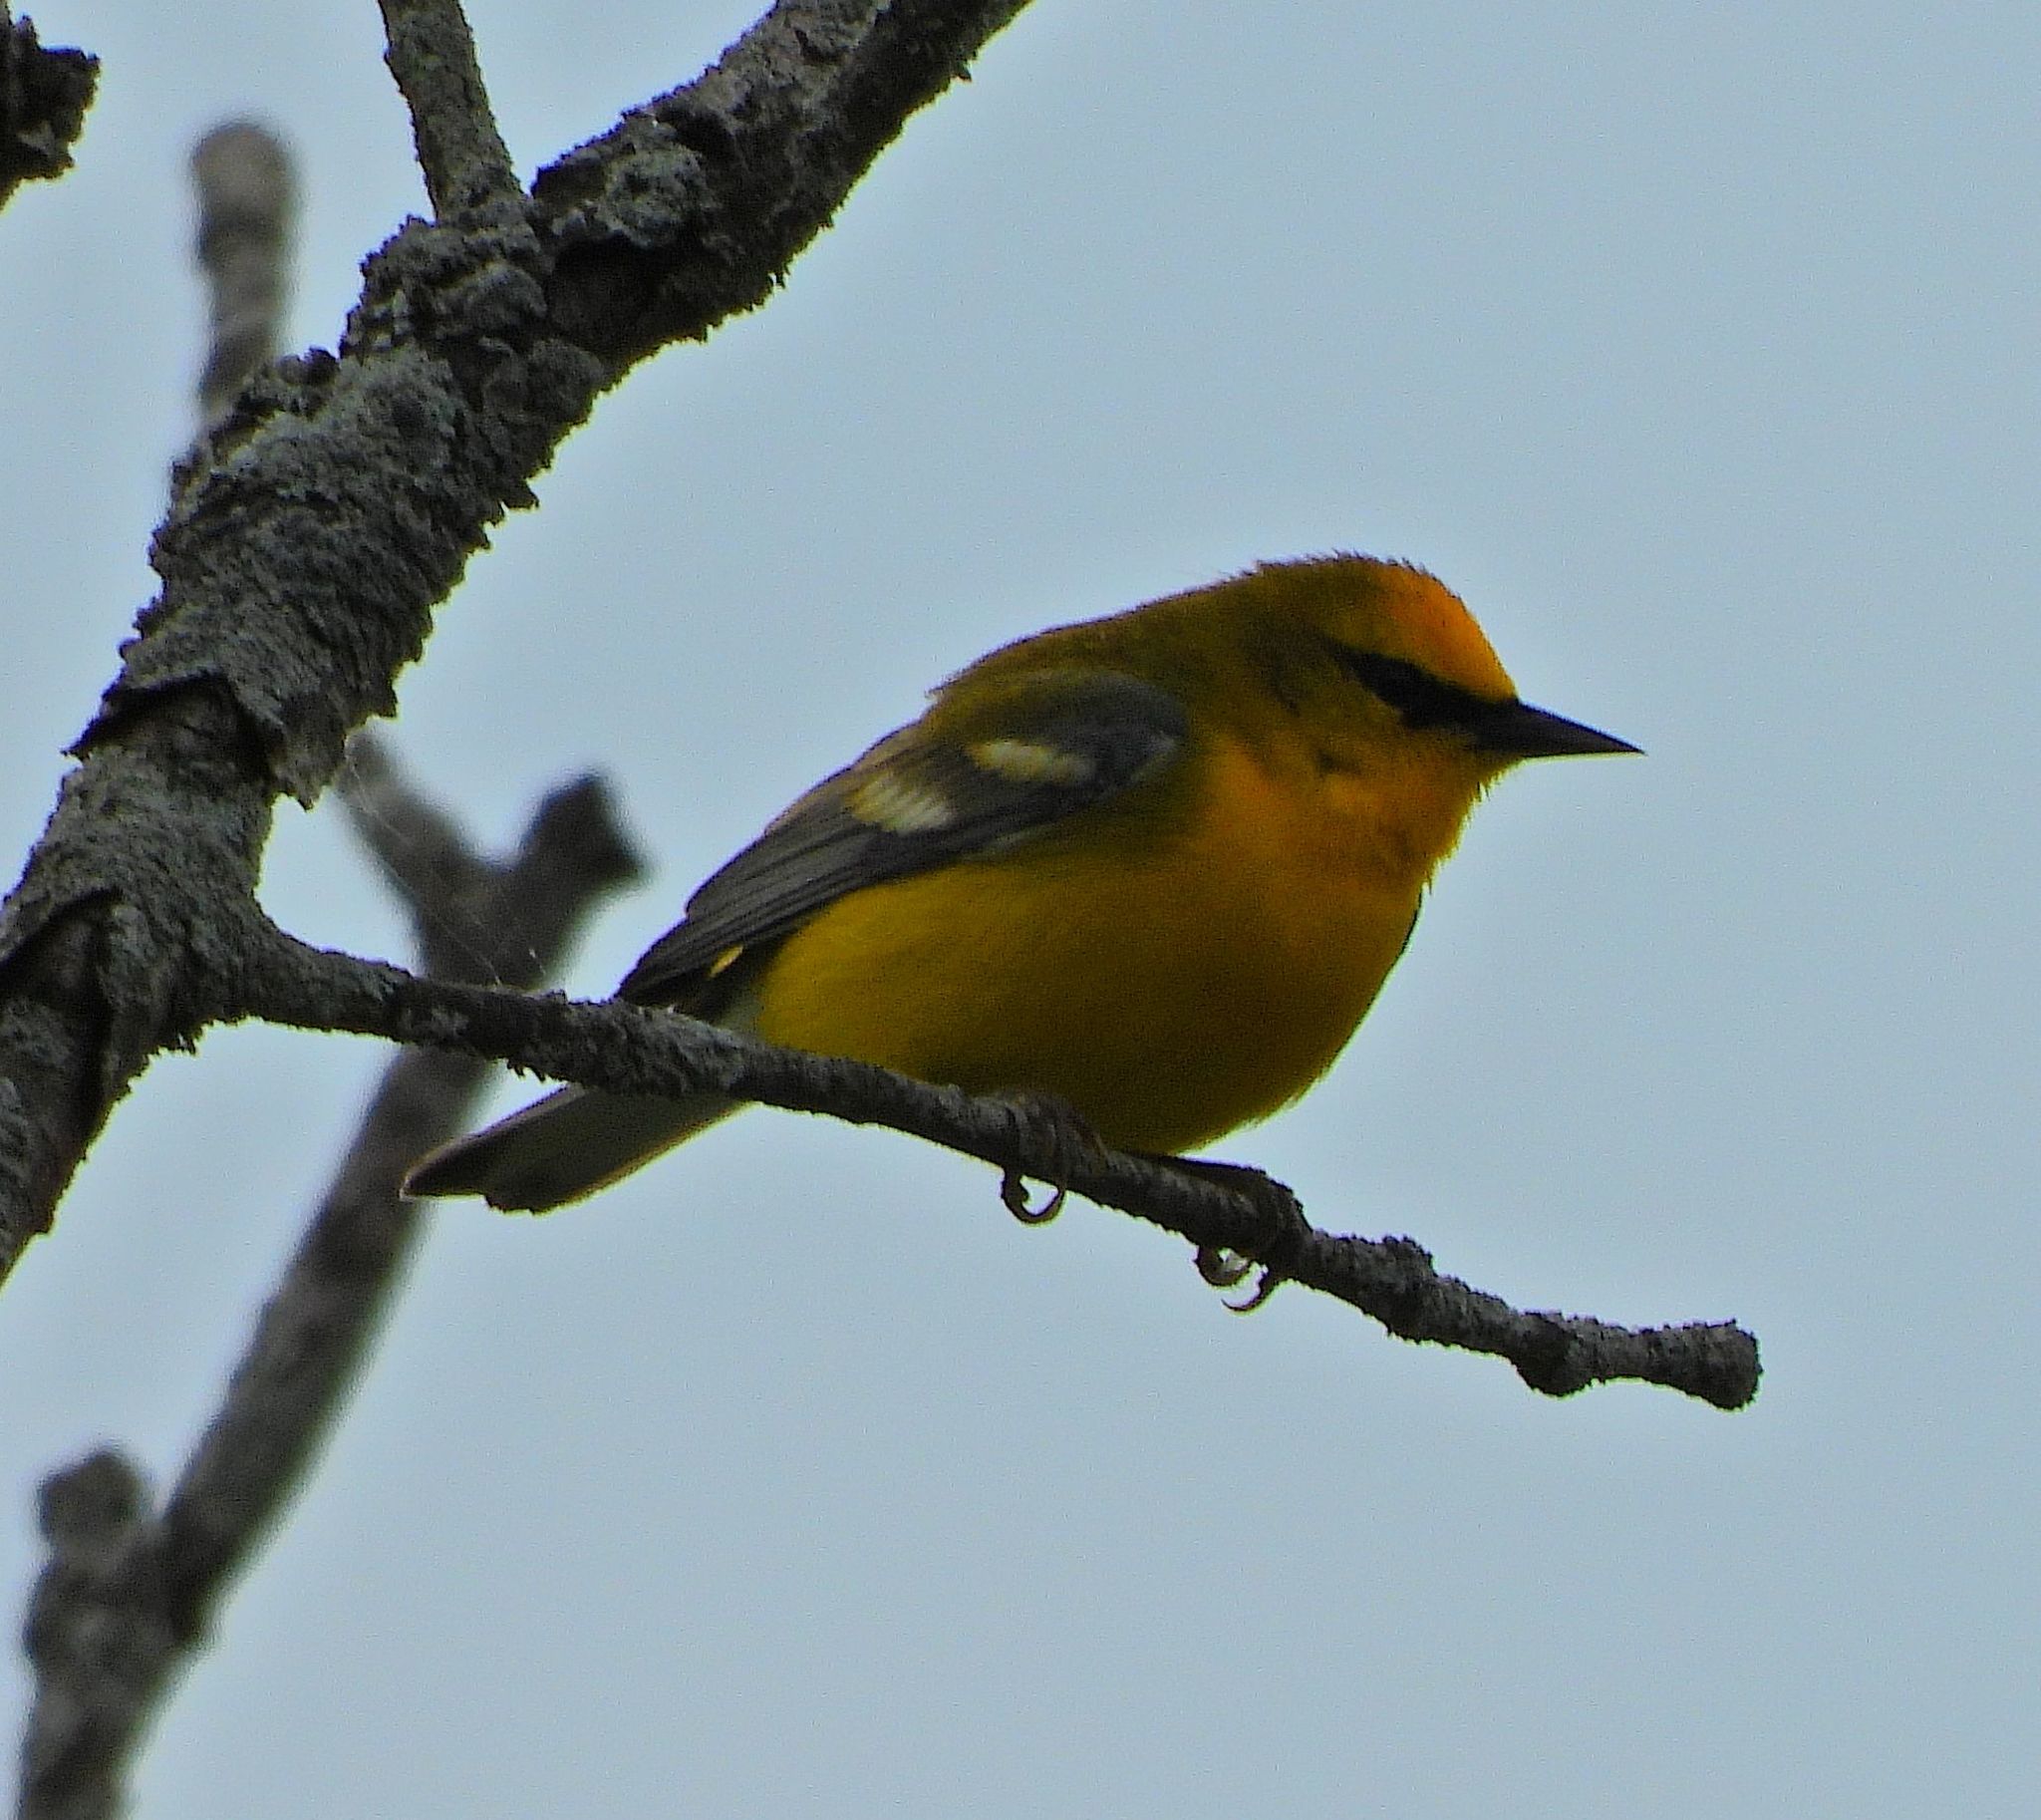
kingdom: Animalia
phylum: Chordata
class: Aves
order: Passeriformes
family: Parulidae
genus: Vermivora
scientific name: Vermivora cyanoptera
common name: Blue-winged warbler
